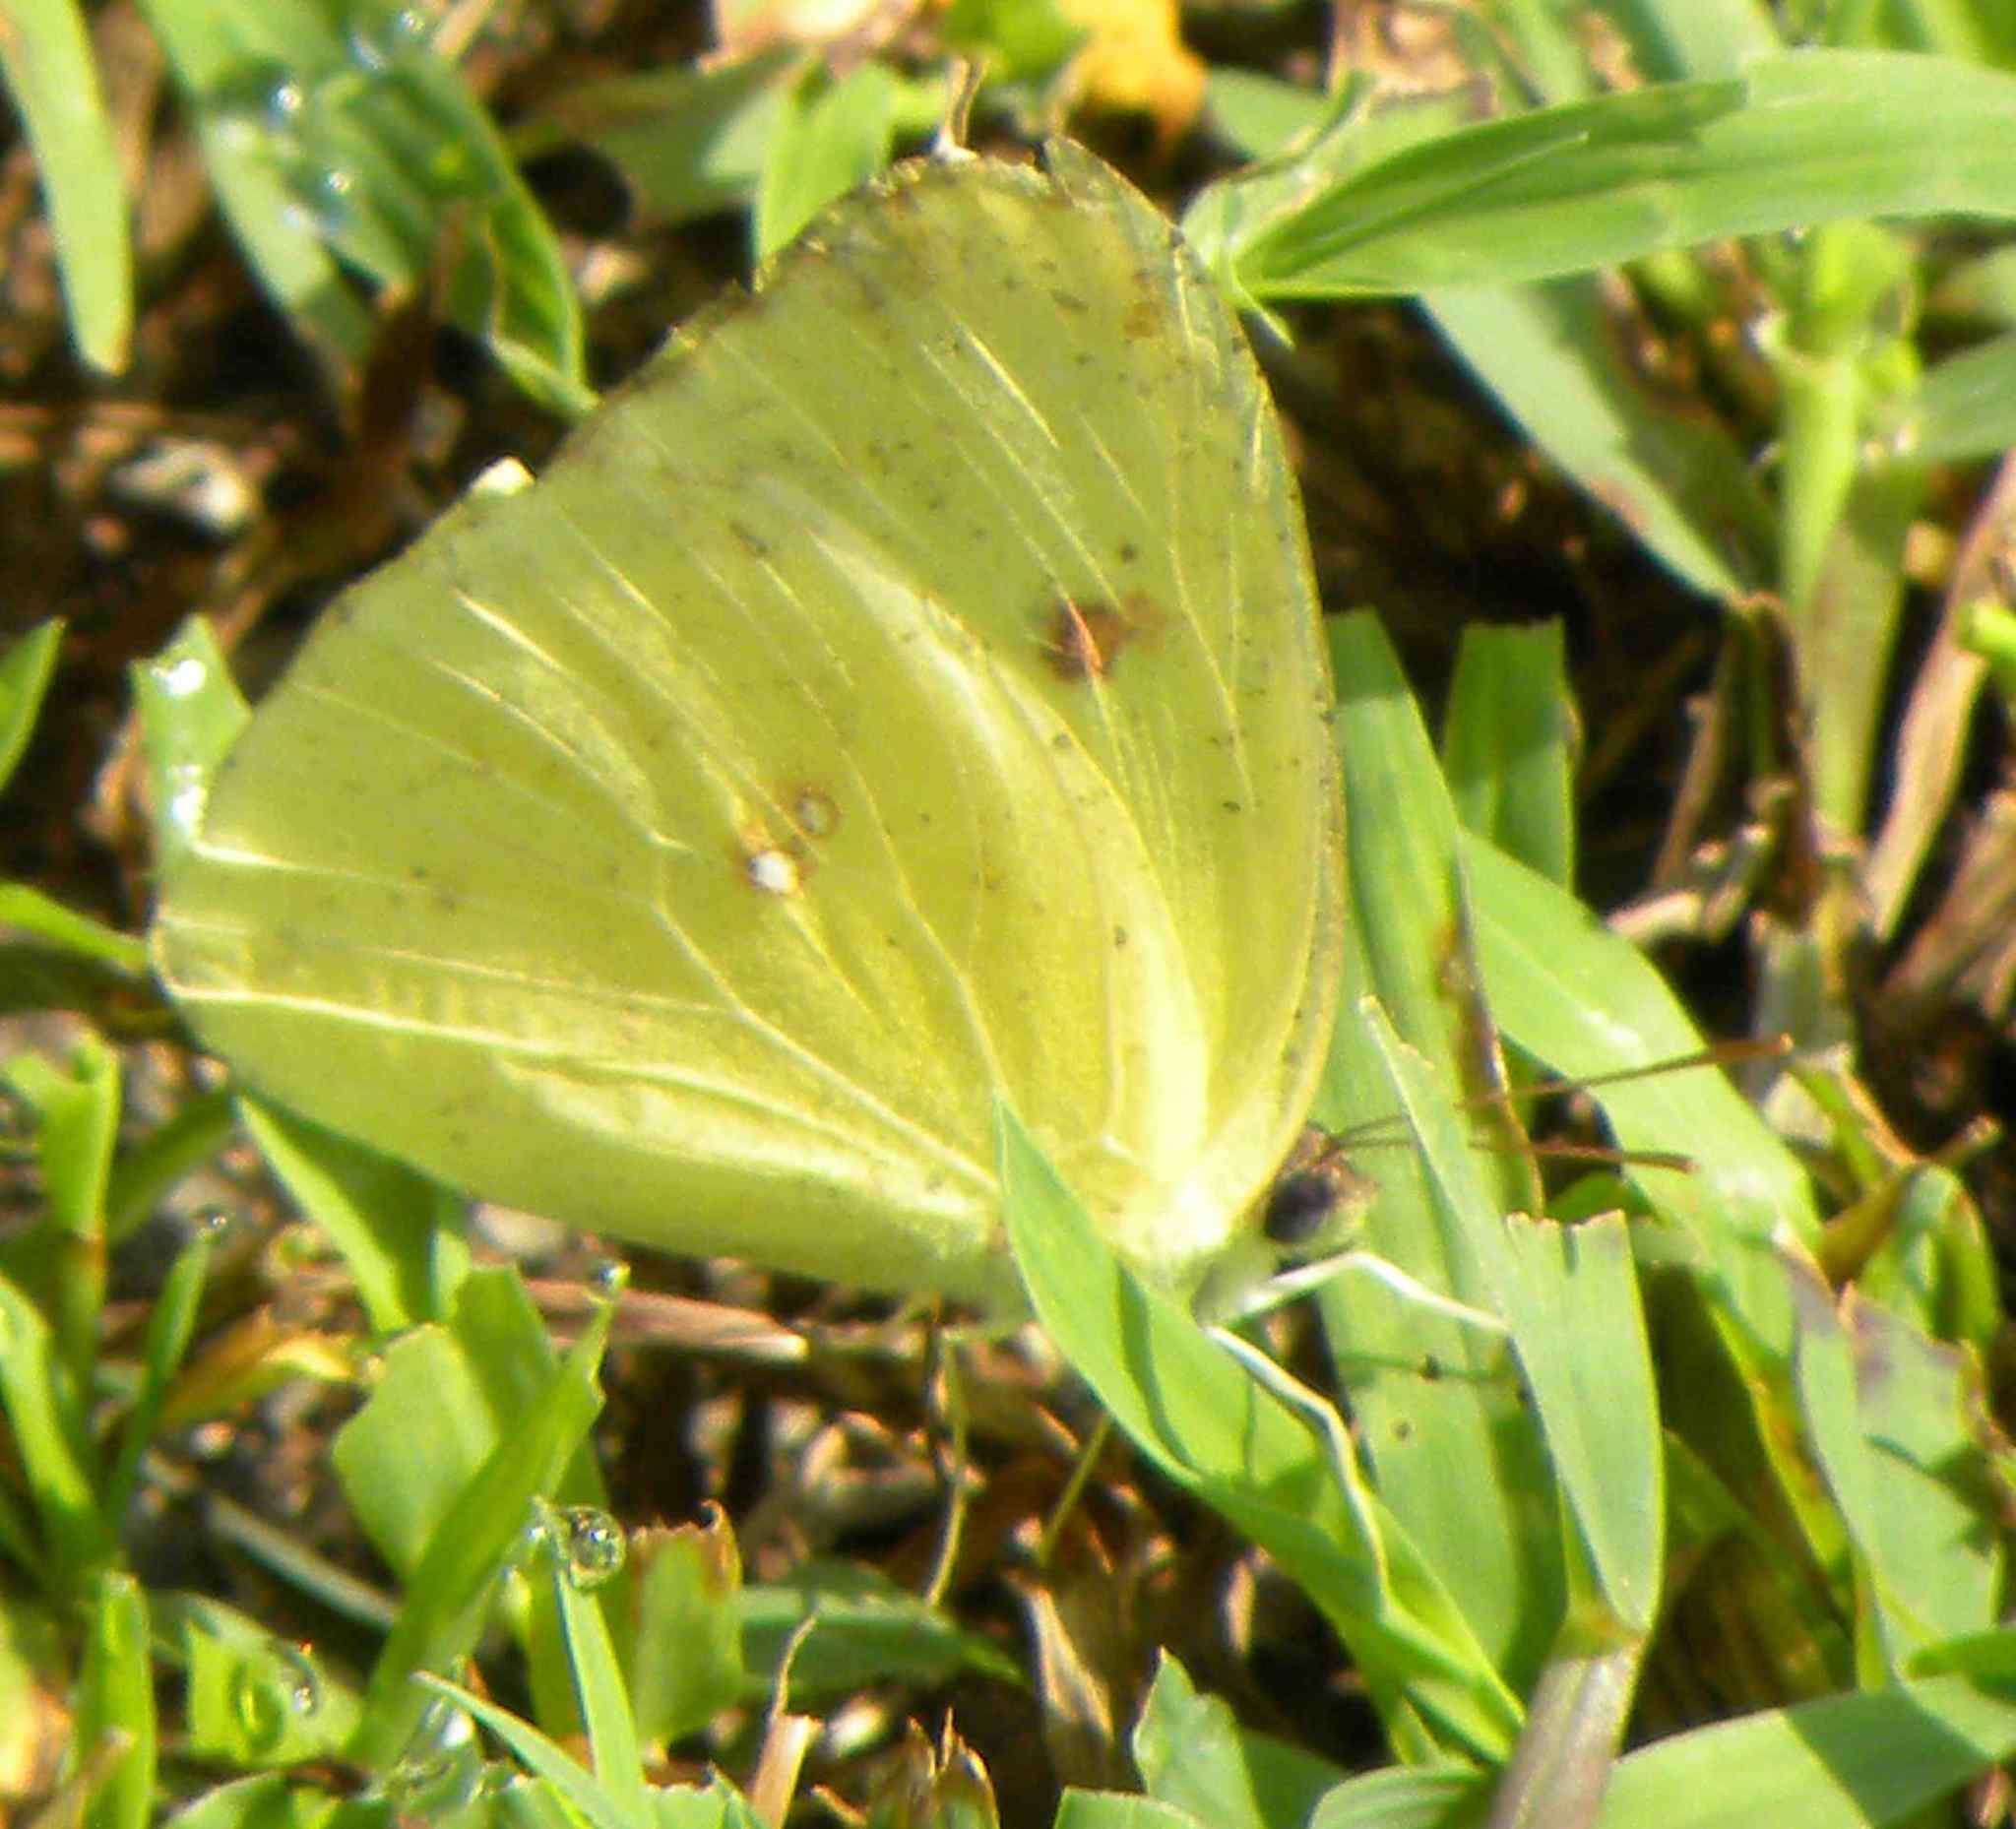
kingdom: Animalia
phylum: Arthropoda
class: Insecta
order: Lepidoptera
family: Pieridae
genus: Phoebis
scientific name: Phoebis sennae
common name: Cloudless sulphur
